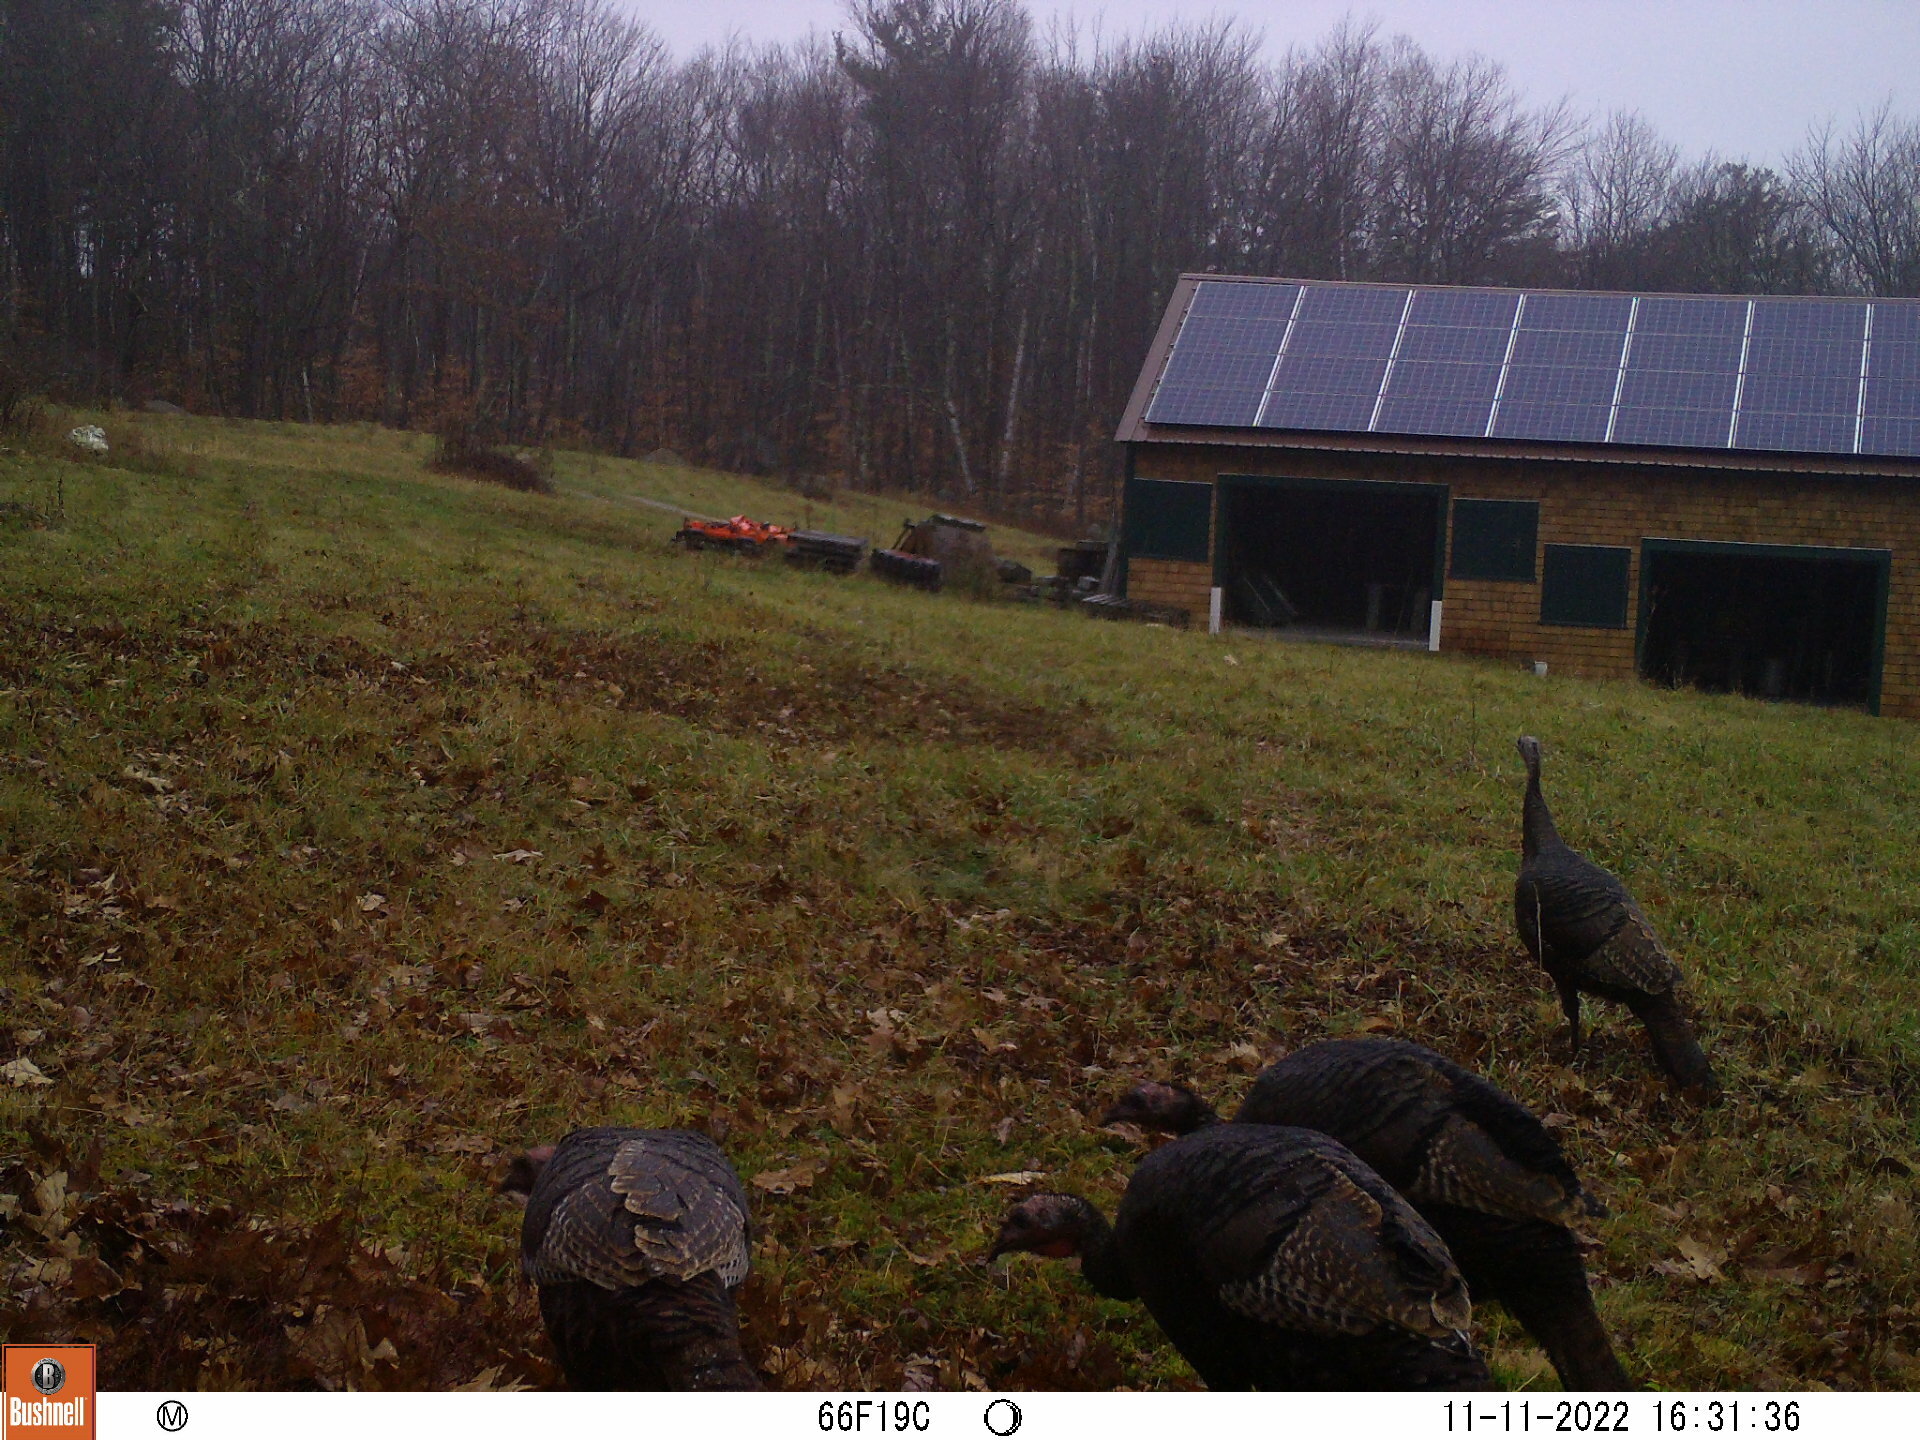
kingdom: Animalia
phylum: Chordata
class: Aves
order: Galliformes
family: Phasianidae
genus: Meleagris
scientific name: Meleagris gallopavo
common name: Wild turkey
